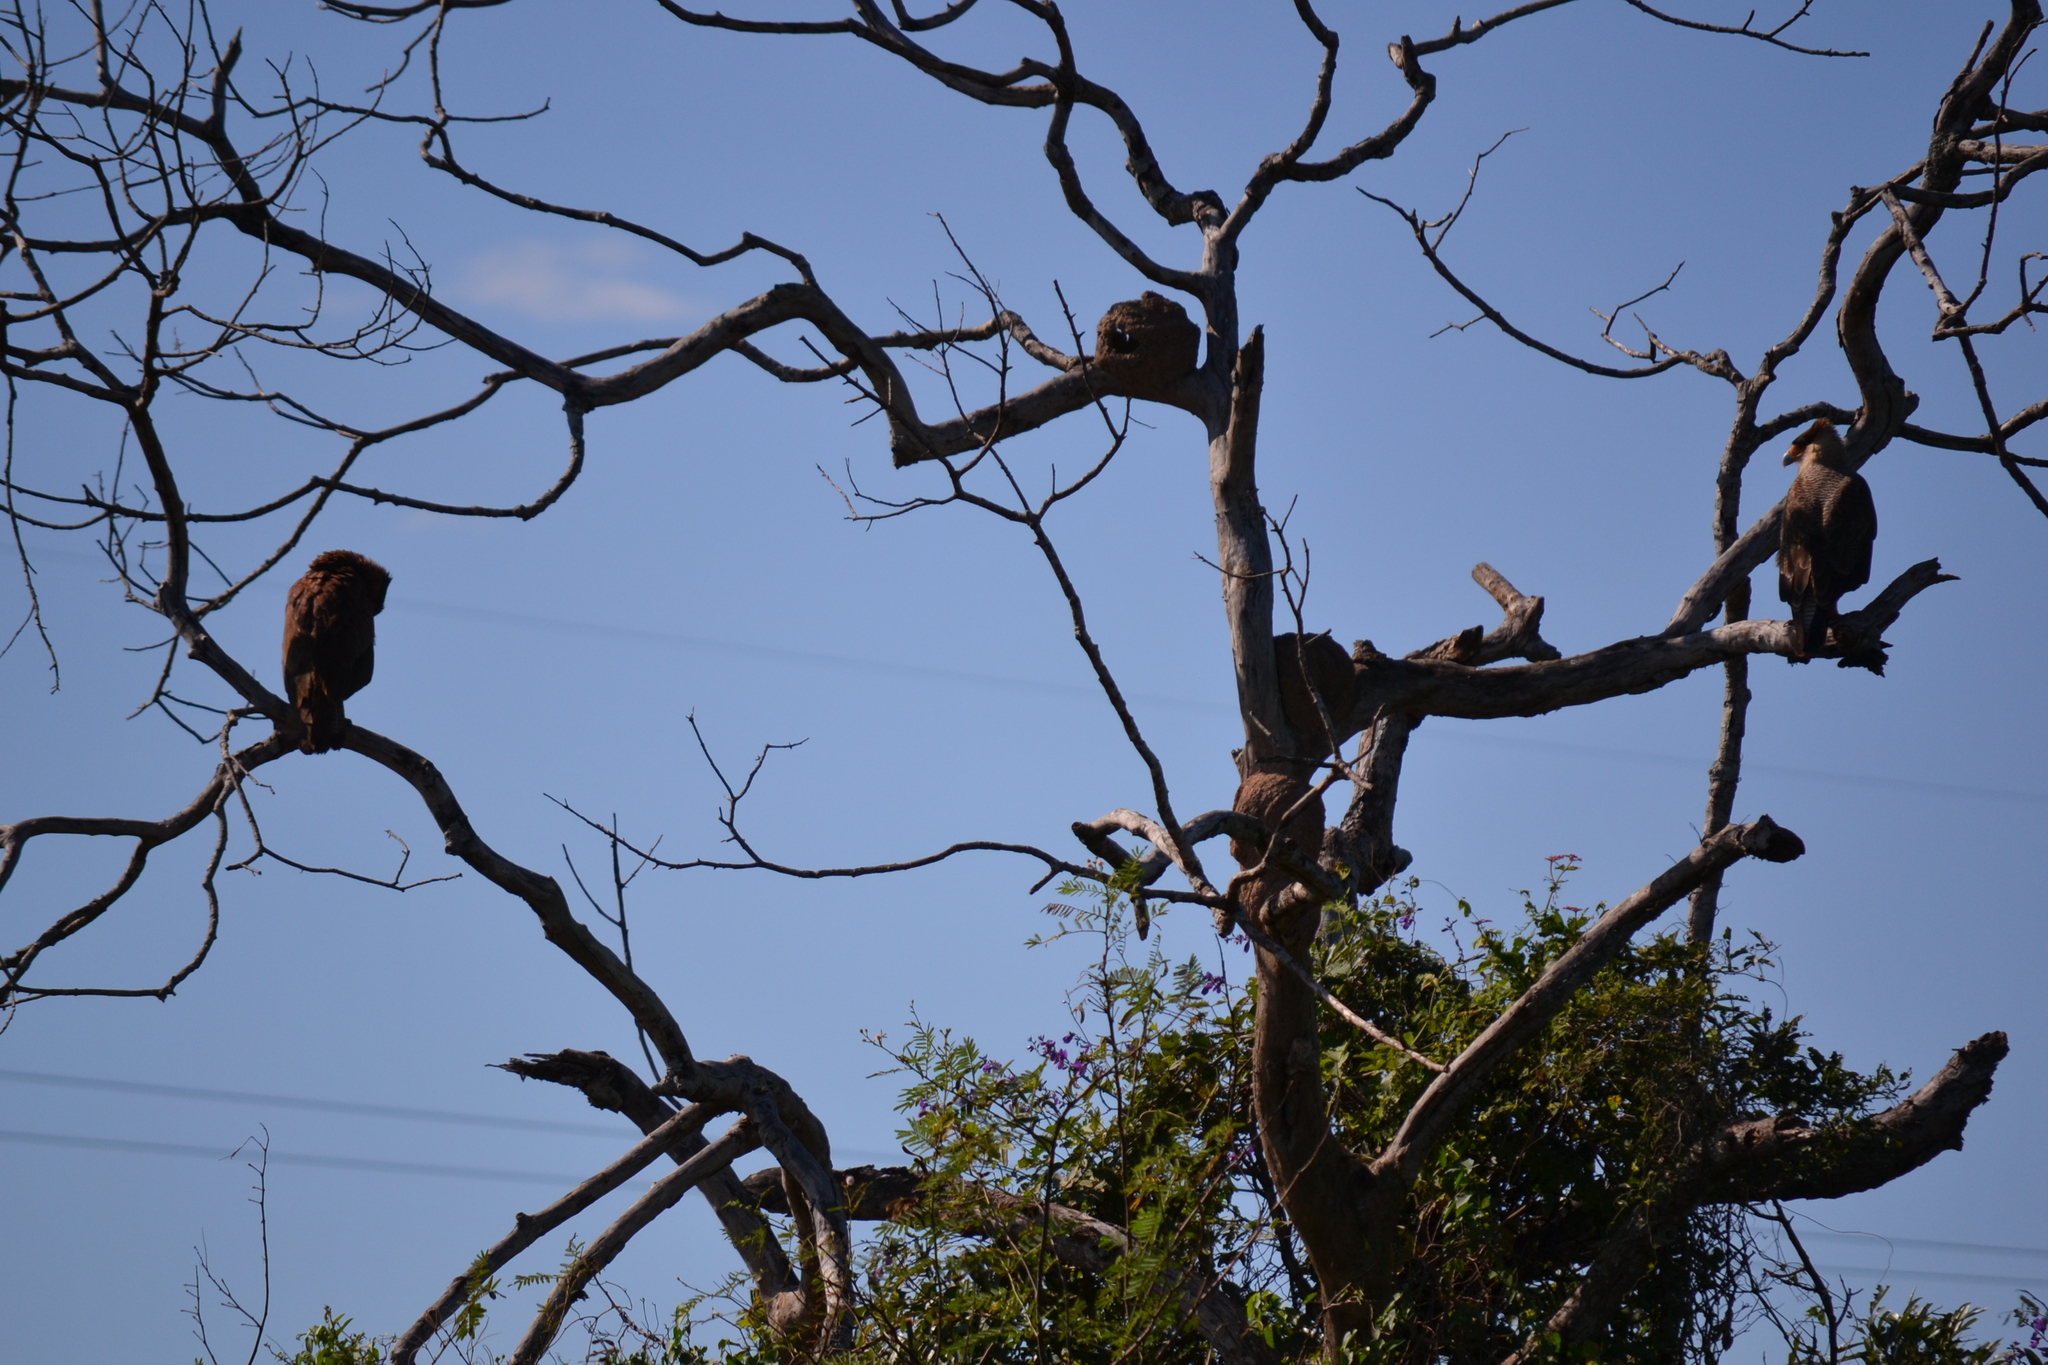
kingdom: Animalia
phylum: Chordata
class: Aves
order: Falconiformes
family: Falconidae
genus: Caracara
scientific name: Caracara plancus
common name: Southern caracara
